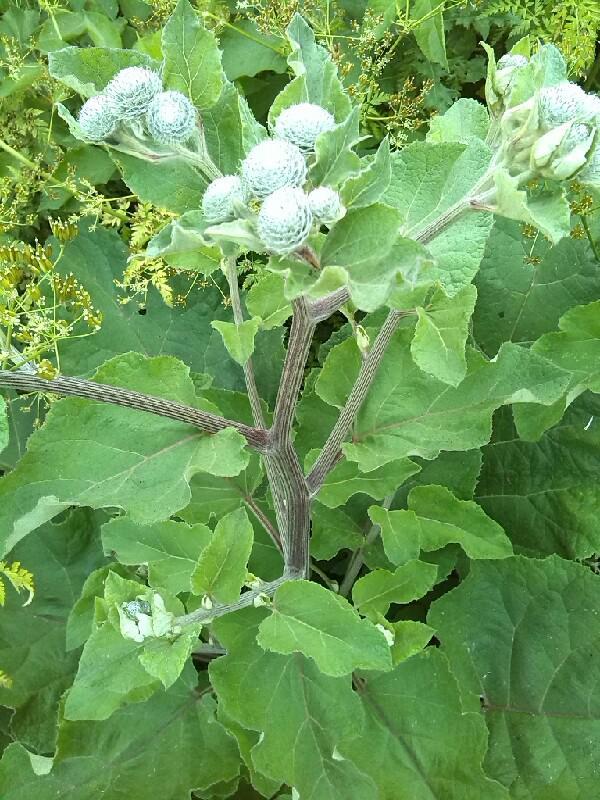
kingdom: Plantae
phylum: Tracheophyta
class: Magnoliopsida
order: Asterales
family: Asteraceae
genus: Arctium
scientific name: Arctium tomentosum
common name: Woolly burdock
